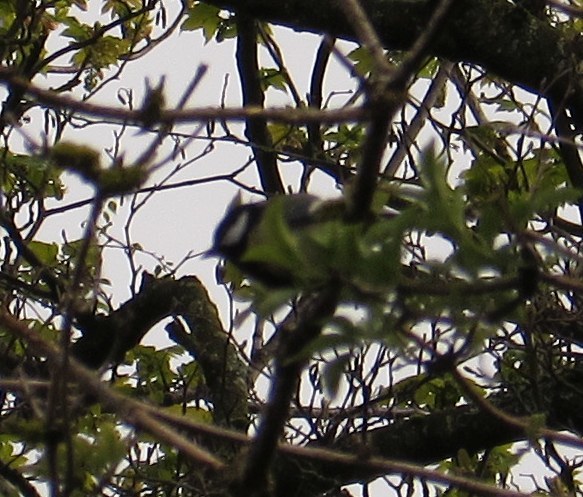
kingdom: Animalia
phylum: Chordata
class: Aves
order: Passeriformes
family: Paridae
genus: Parus
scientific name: Parus major
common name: Great tit
